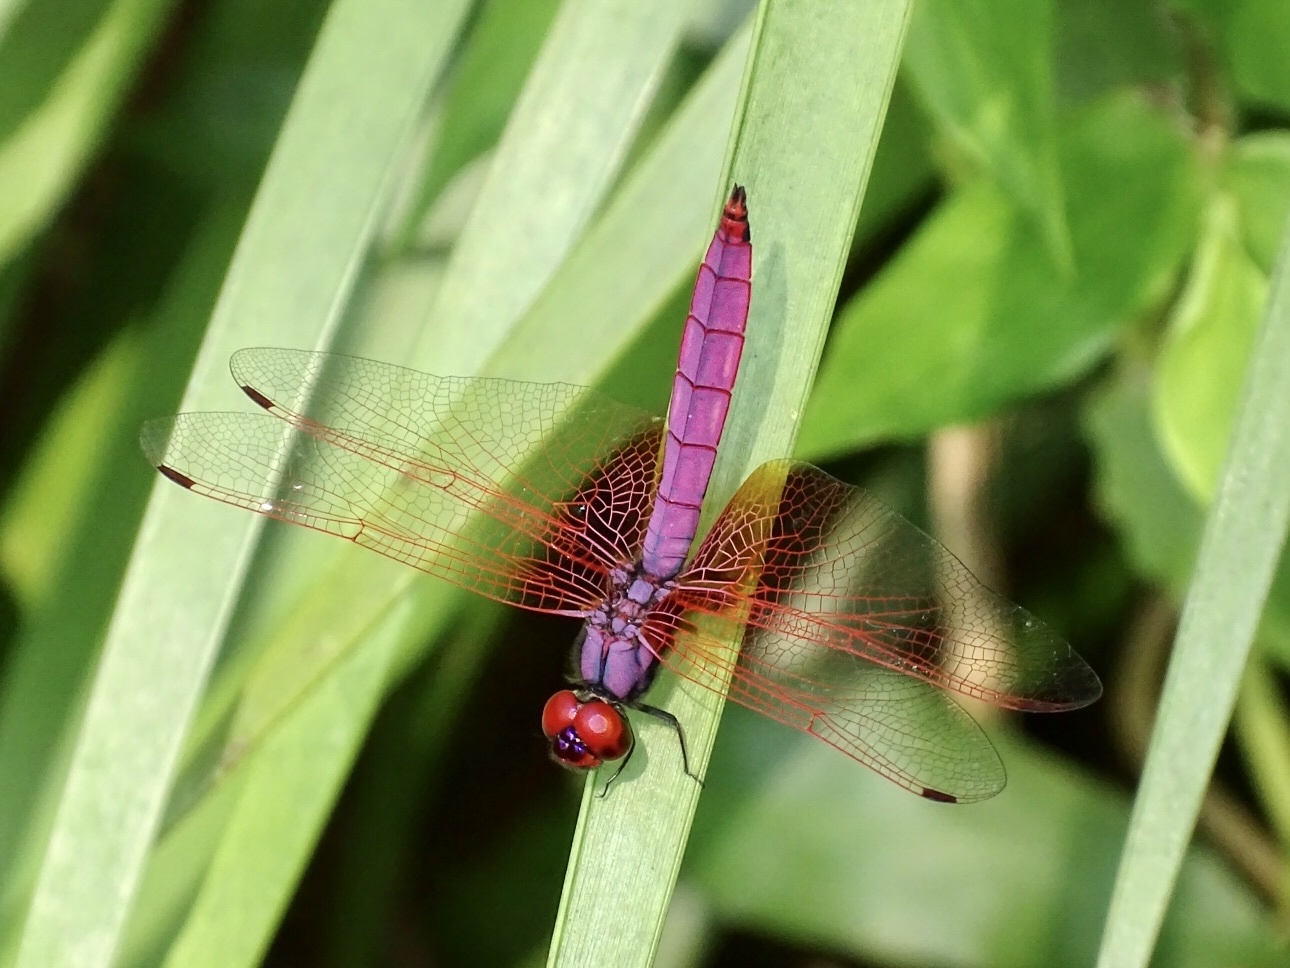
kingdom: Animalia
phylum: Arthropoda
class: Insecta
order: Odonata
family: Libellulidae
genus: Trithemis
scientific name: Trithemis aurora
